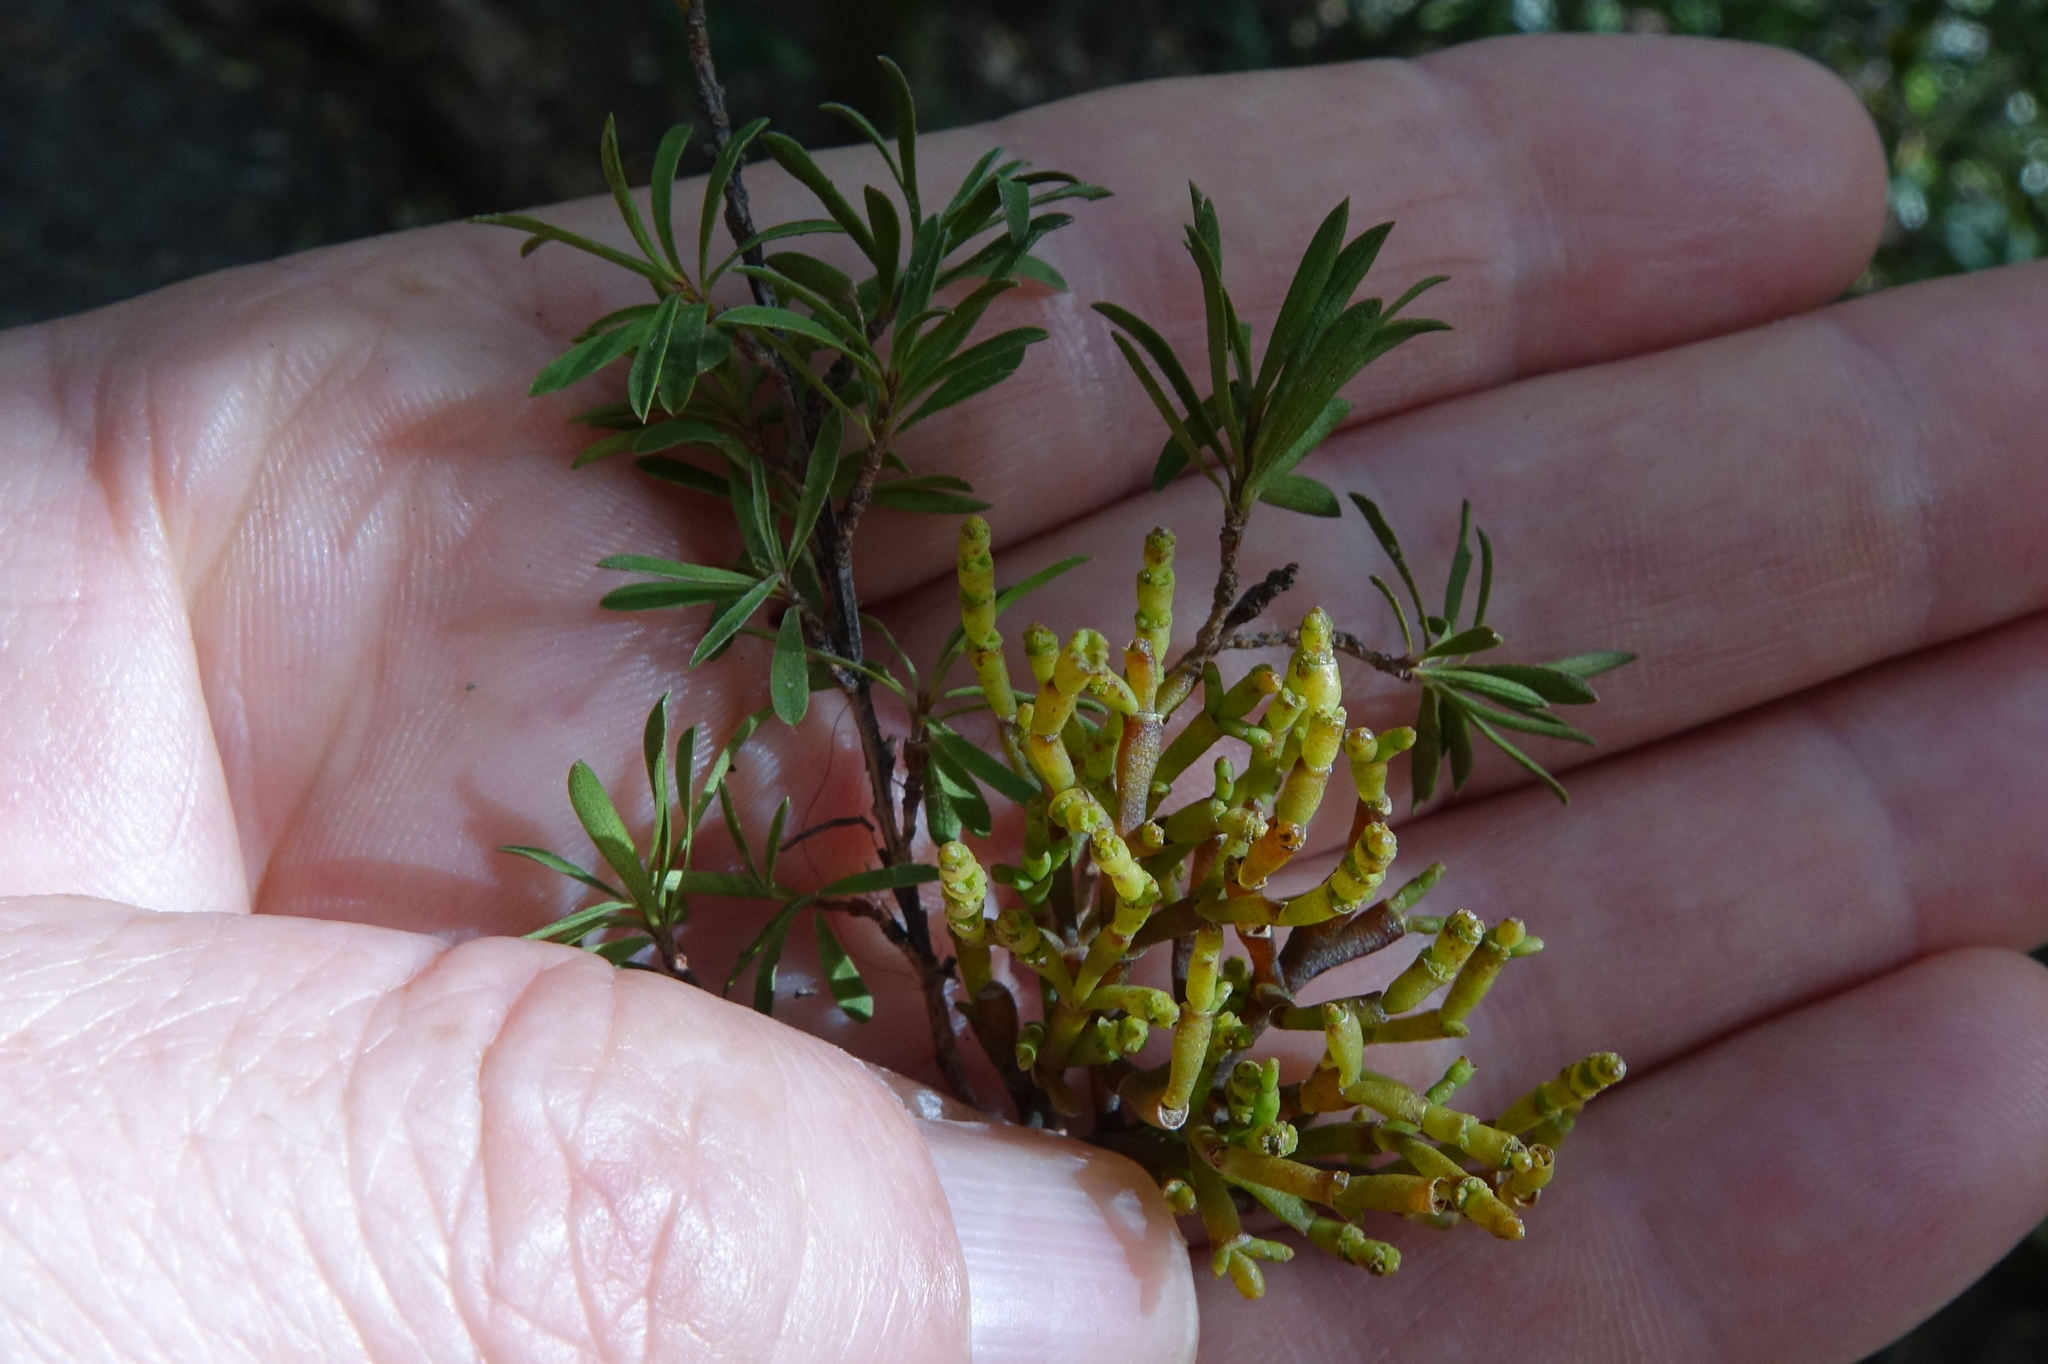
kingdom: Plantae
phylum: Tracheophyta
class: Magnoliopsida
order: Santalales
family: Viscaceae
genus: Korthalsella
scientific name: Korthalsella salicornioides
